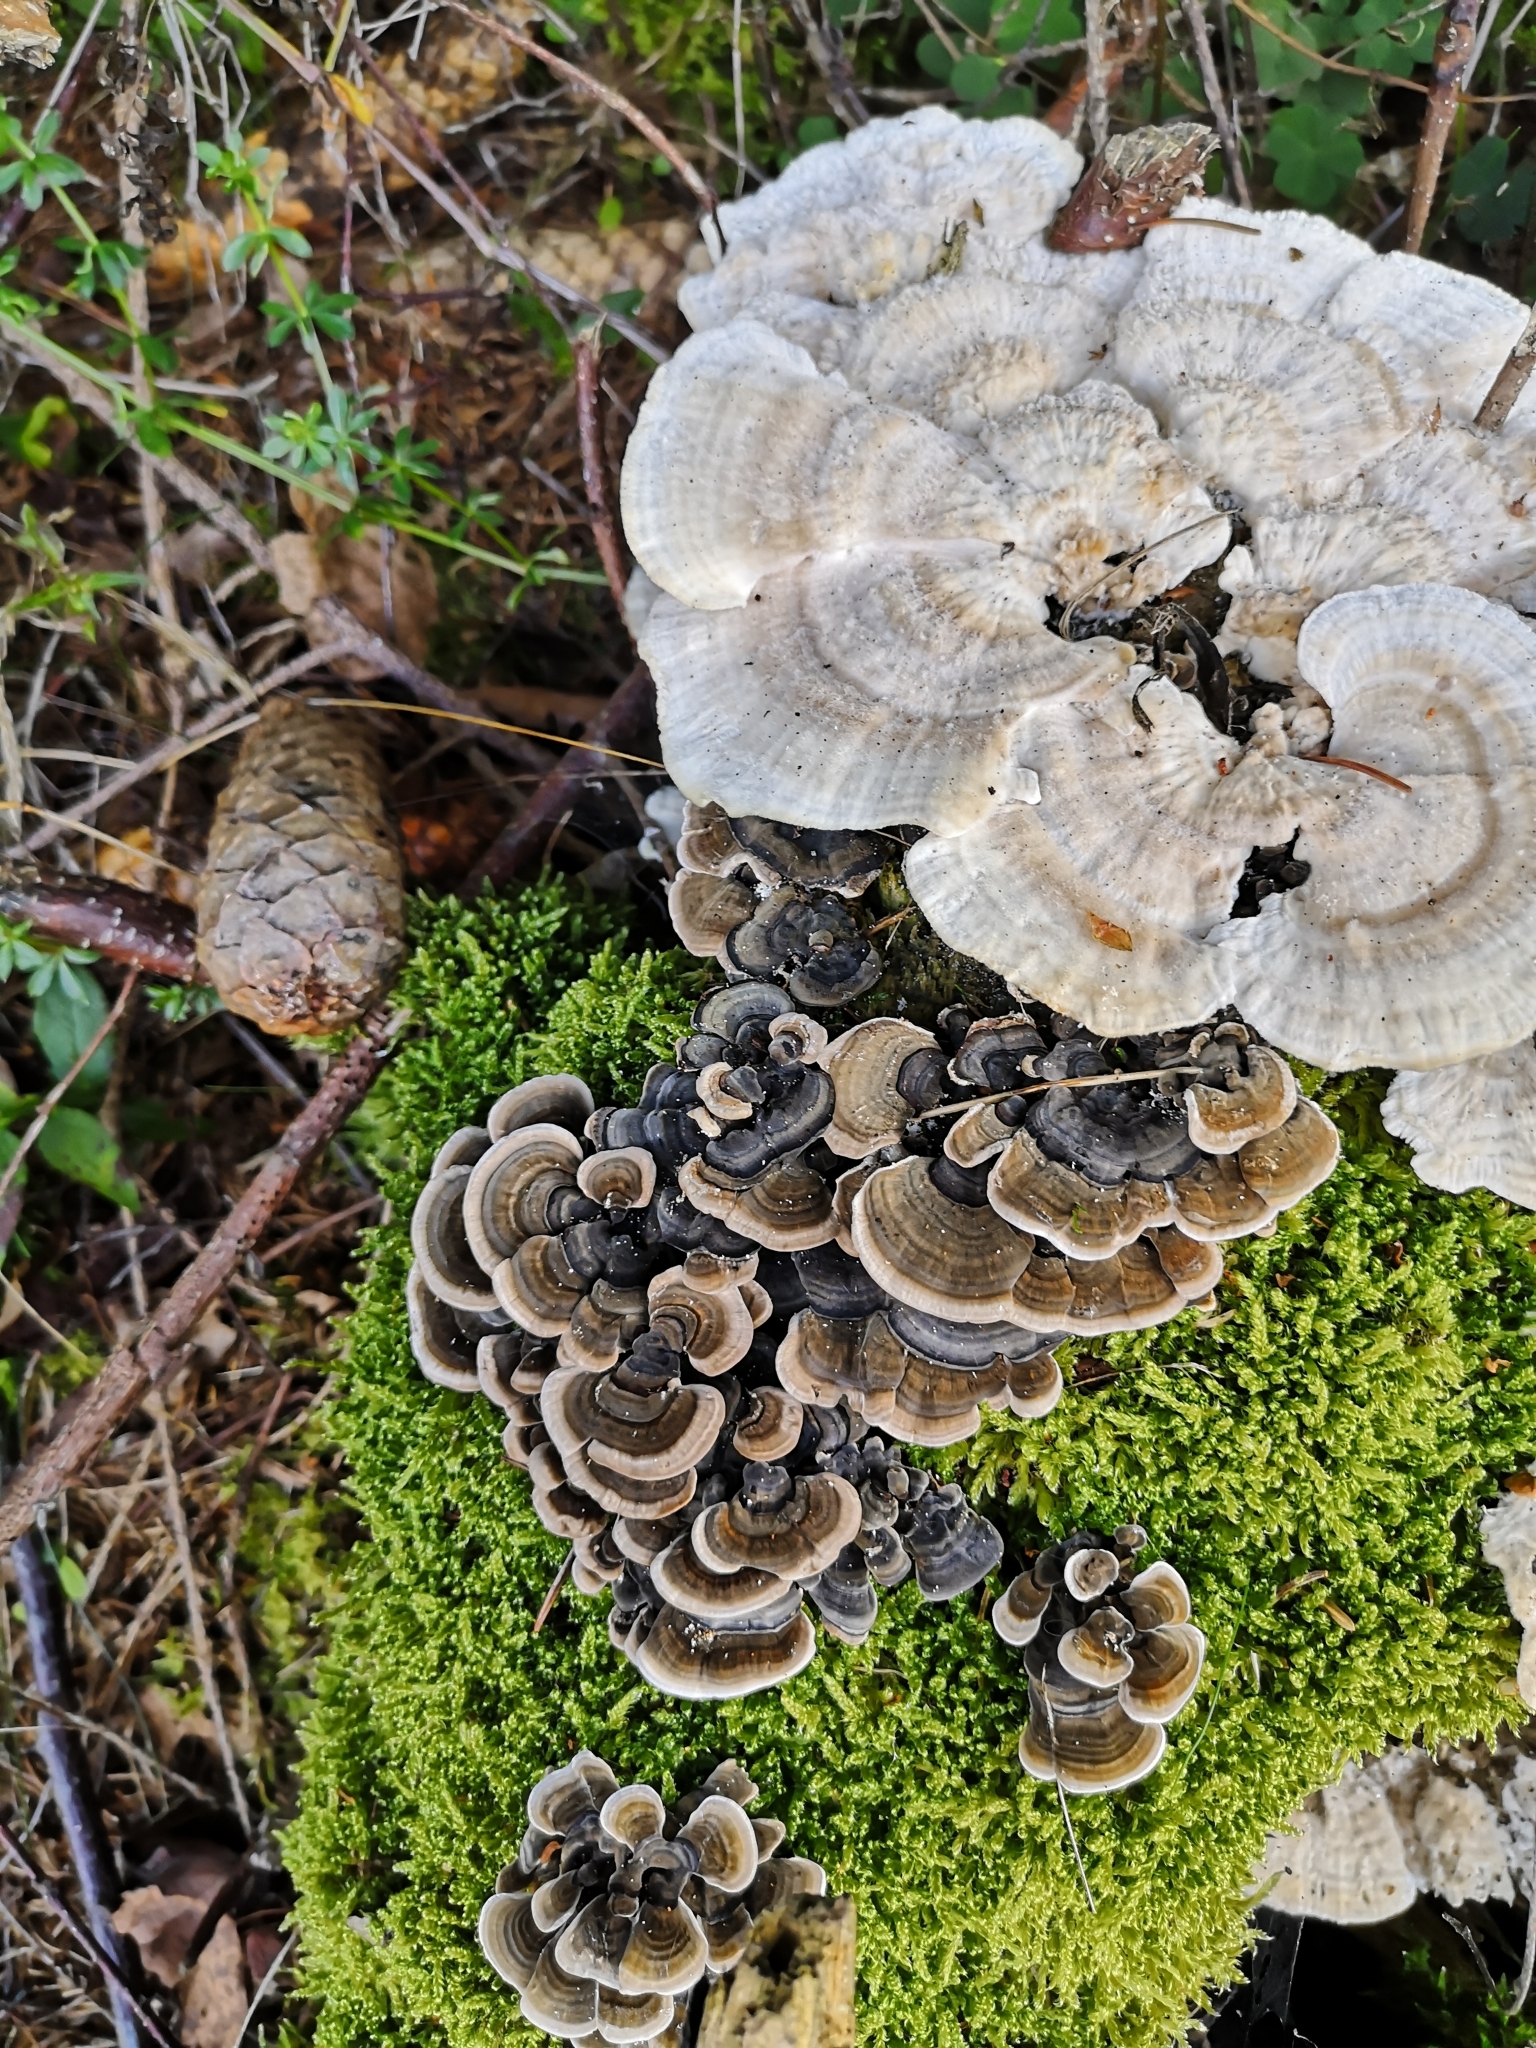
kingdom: Fungi
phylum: Basidiomycota
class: Agaricomycetes
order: Polyporales
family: Polyporaceae
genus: Trametes
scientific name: Trametes hirsuta
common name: Hairy bracket
